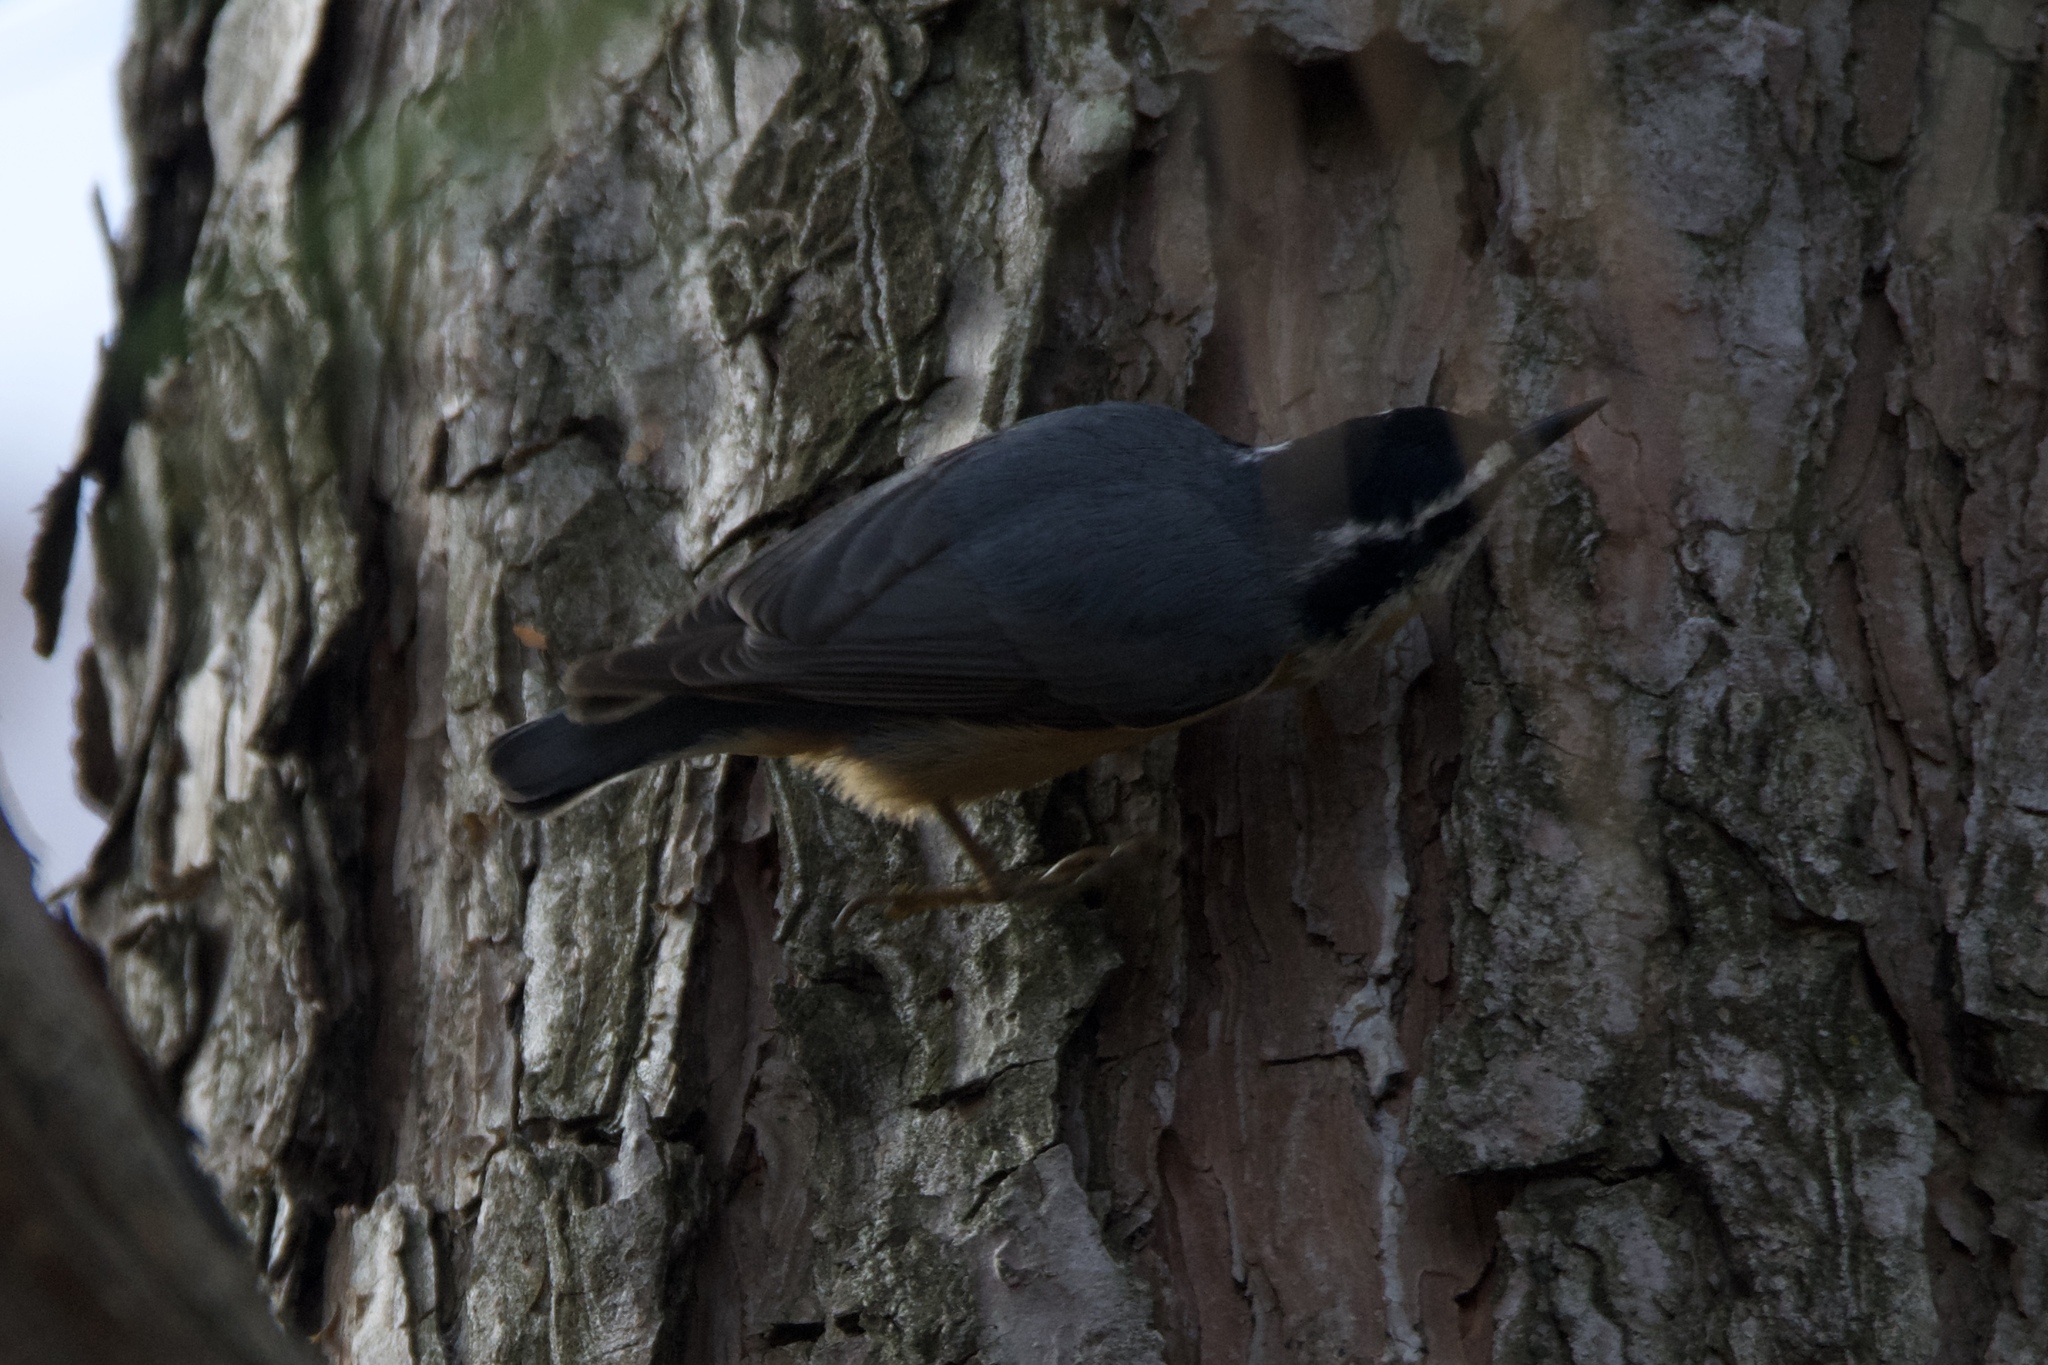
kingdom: Animalia
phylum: Chordata
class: Aves
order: Passeriformes
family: Sittidae
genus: Sitta
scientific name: Sitta canadensis
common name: Red-breasted nuthatch
